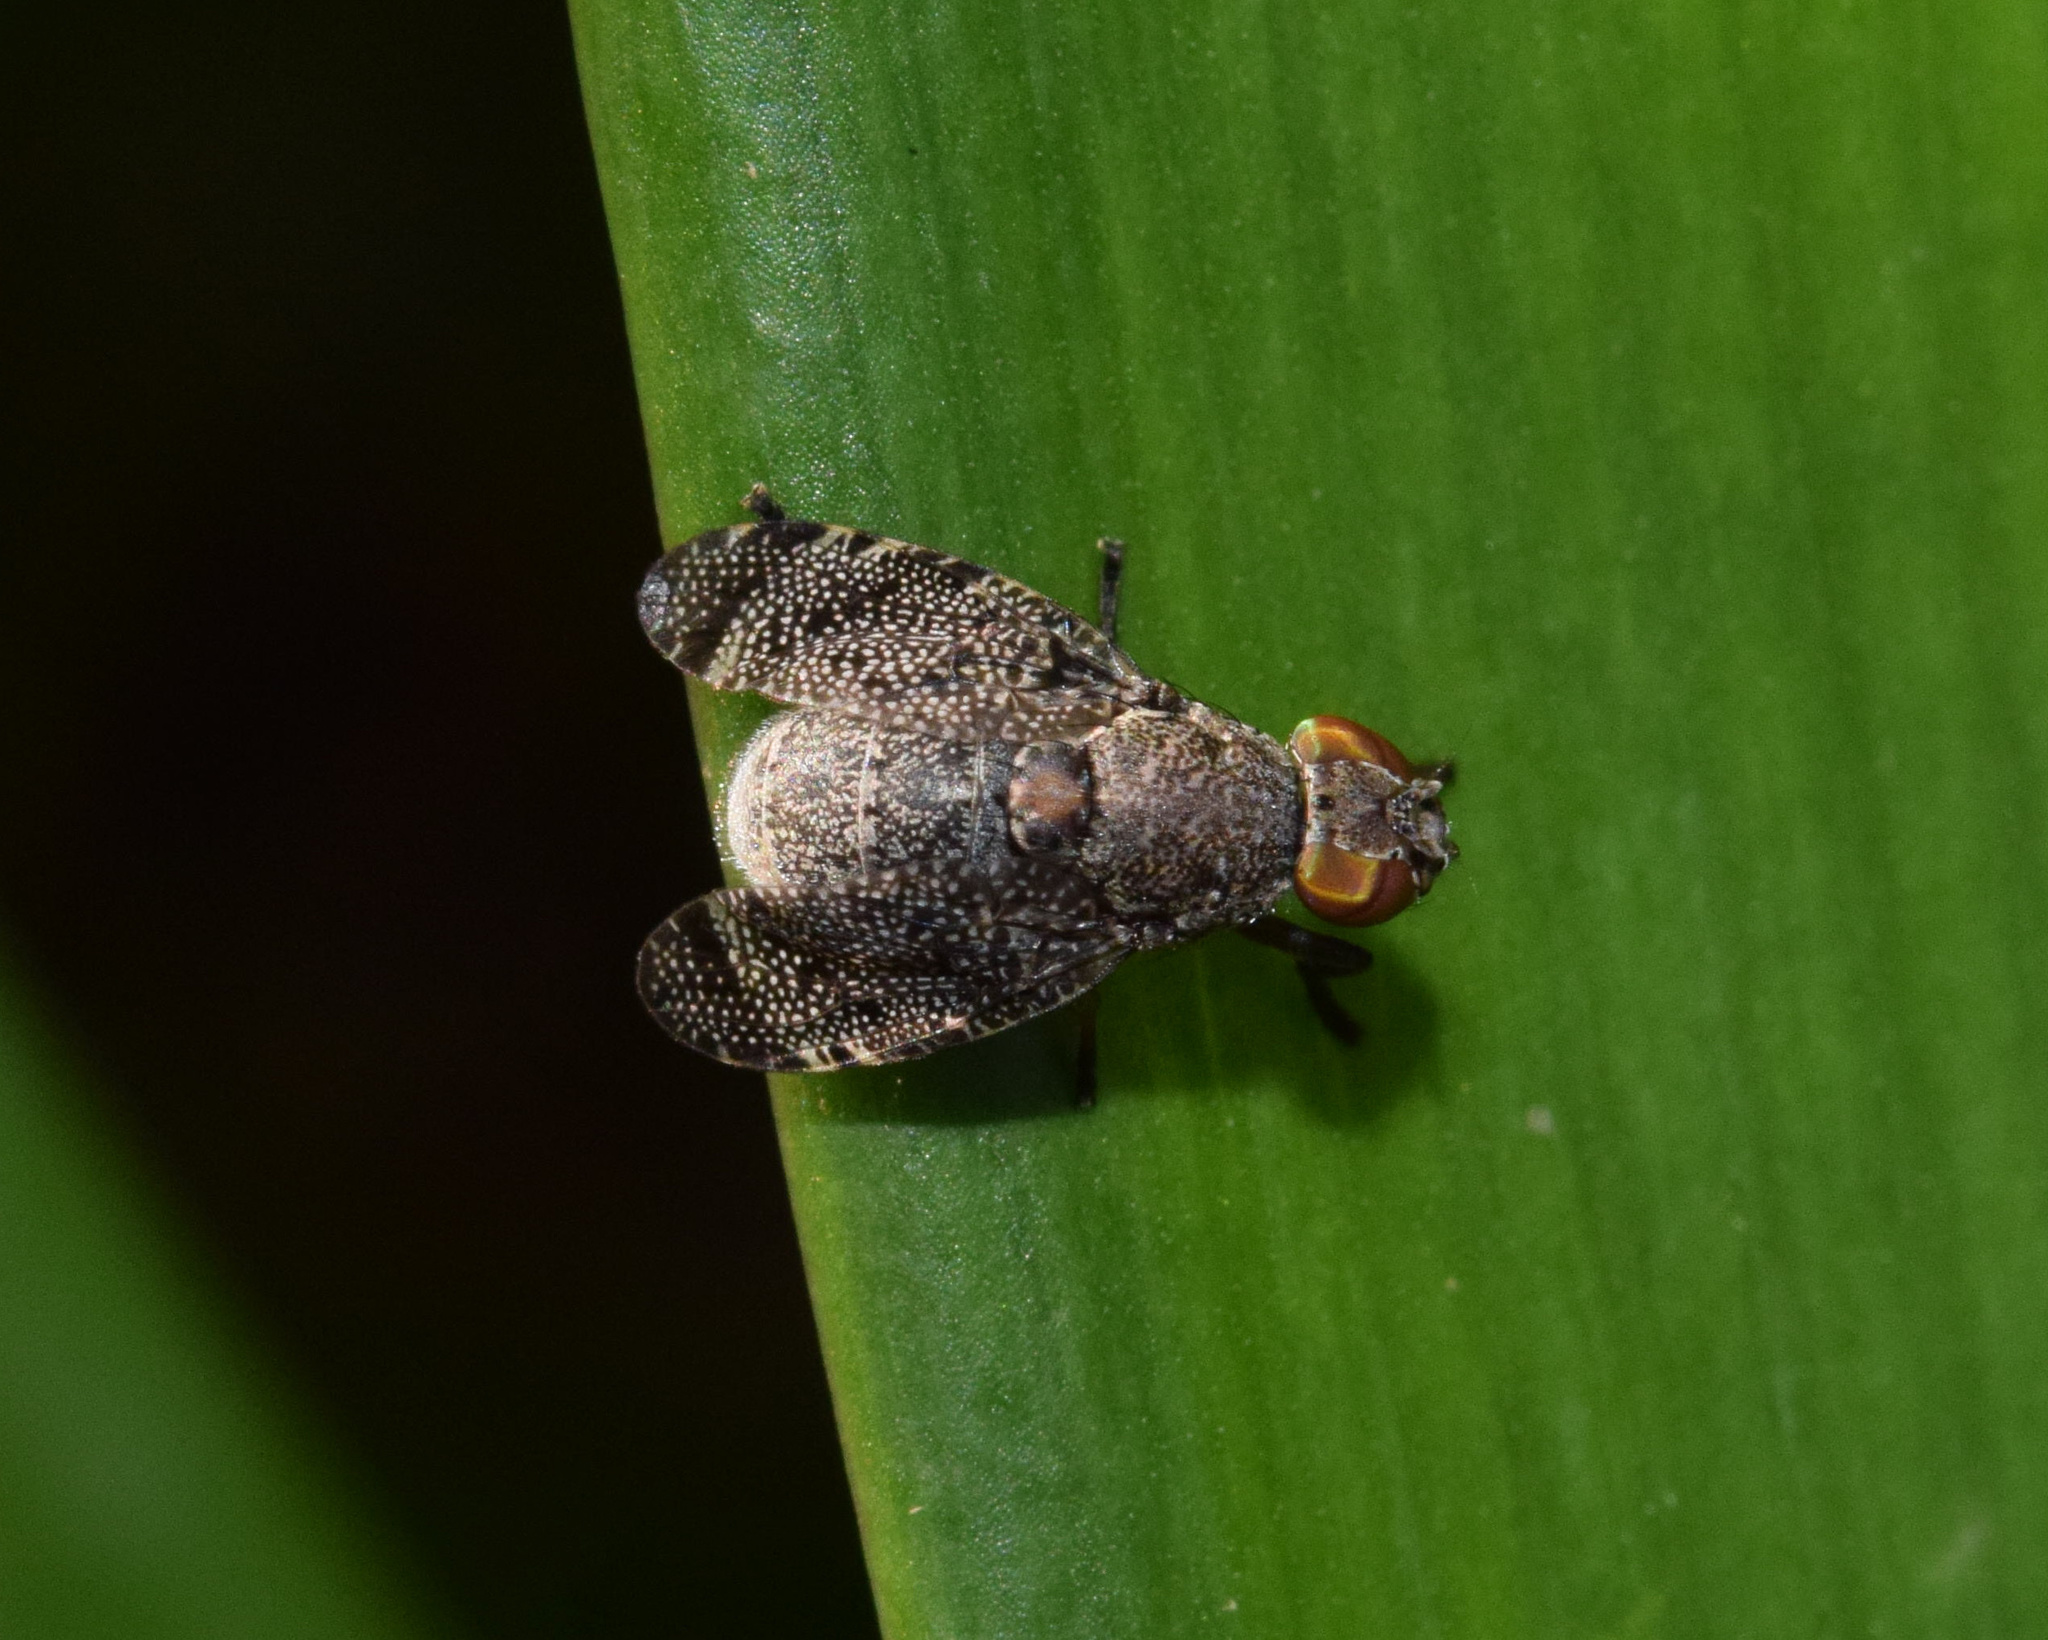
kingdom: Animalia
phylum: Arthropoda
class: Insecta
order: Diptera
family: Platystomatidae
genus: Lophoplatystoma
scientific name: Lophoplatystoma acarigerum
